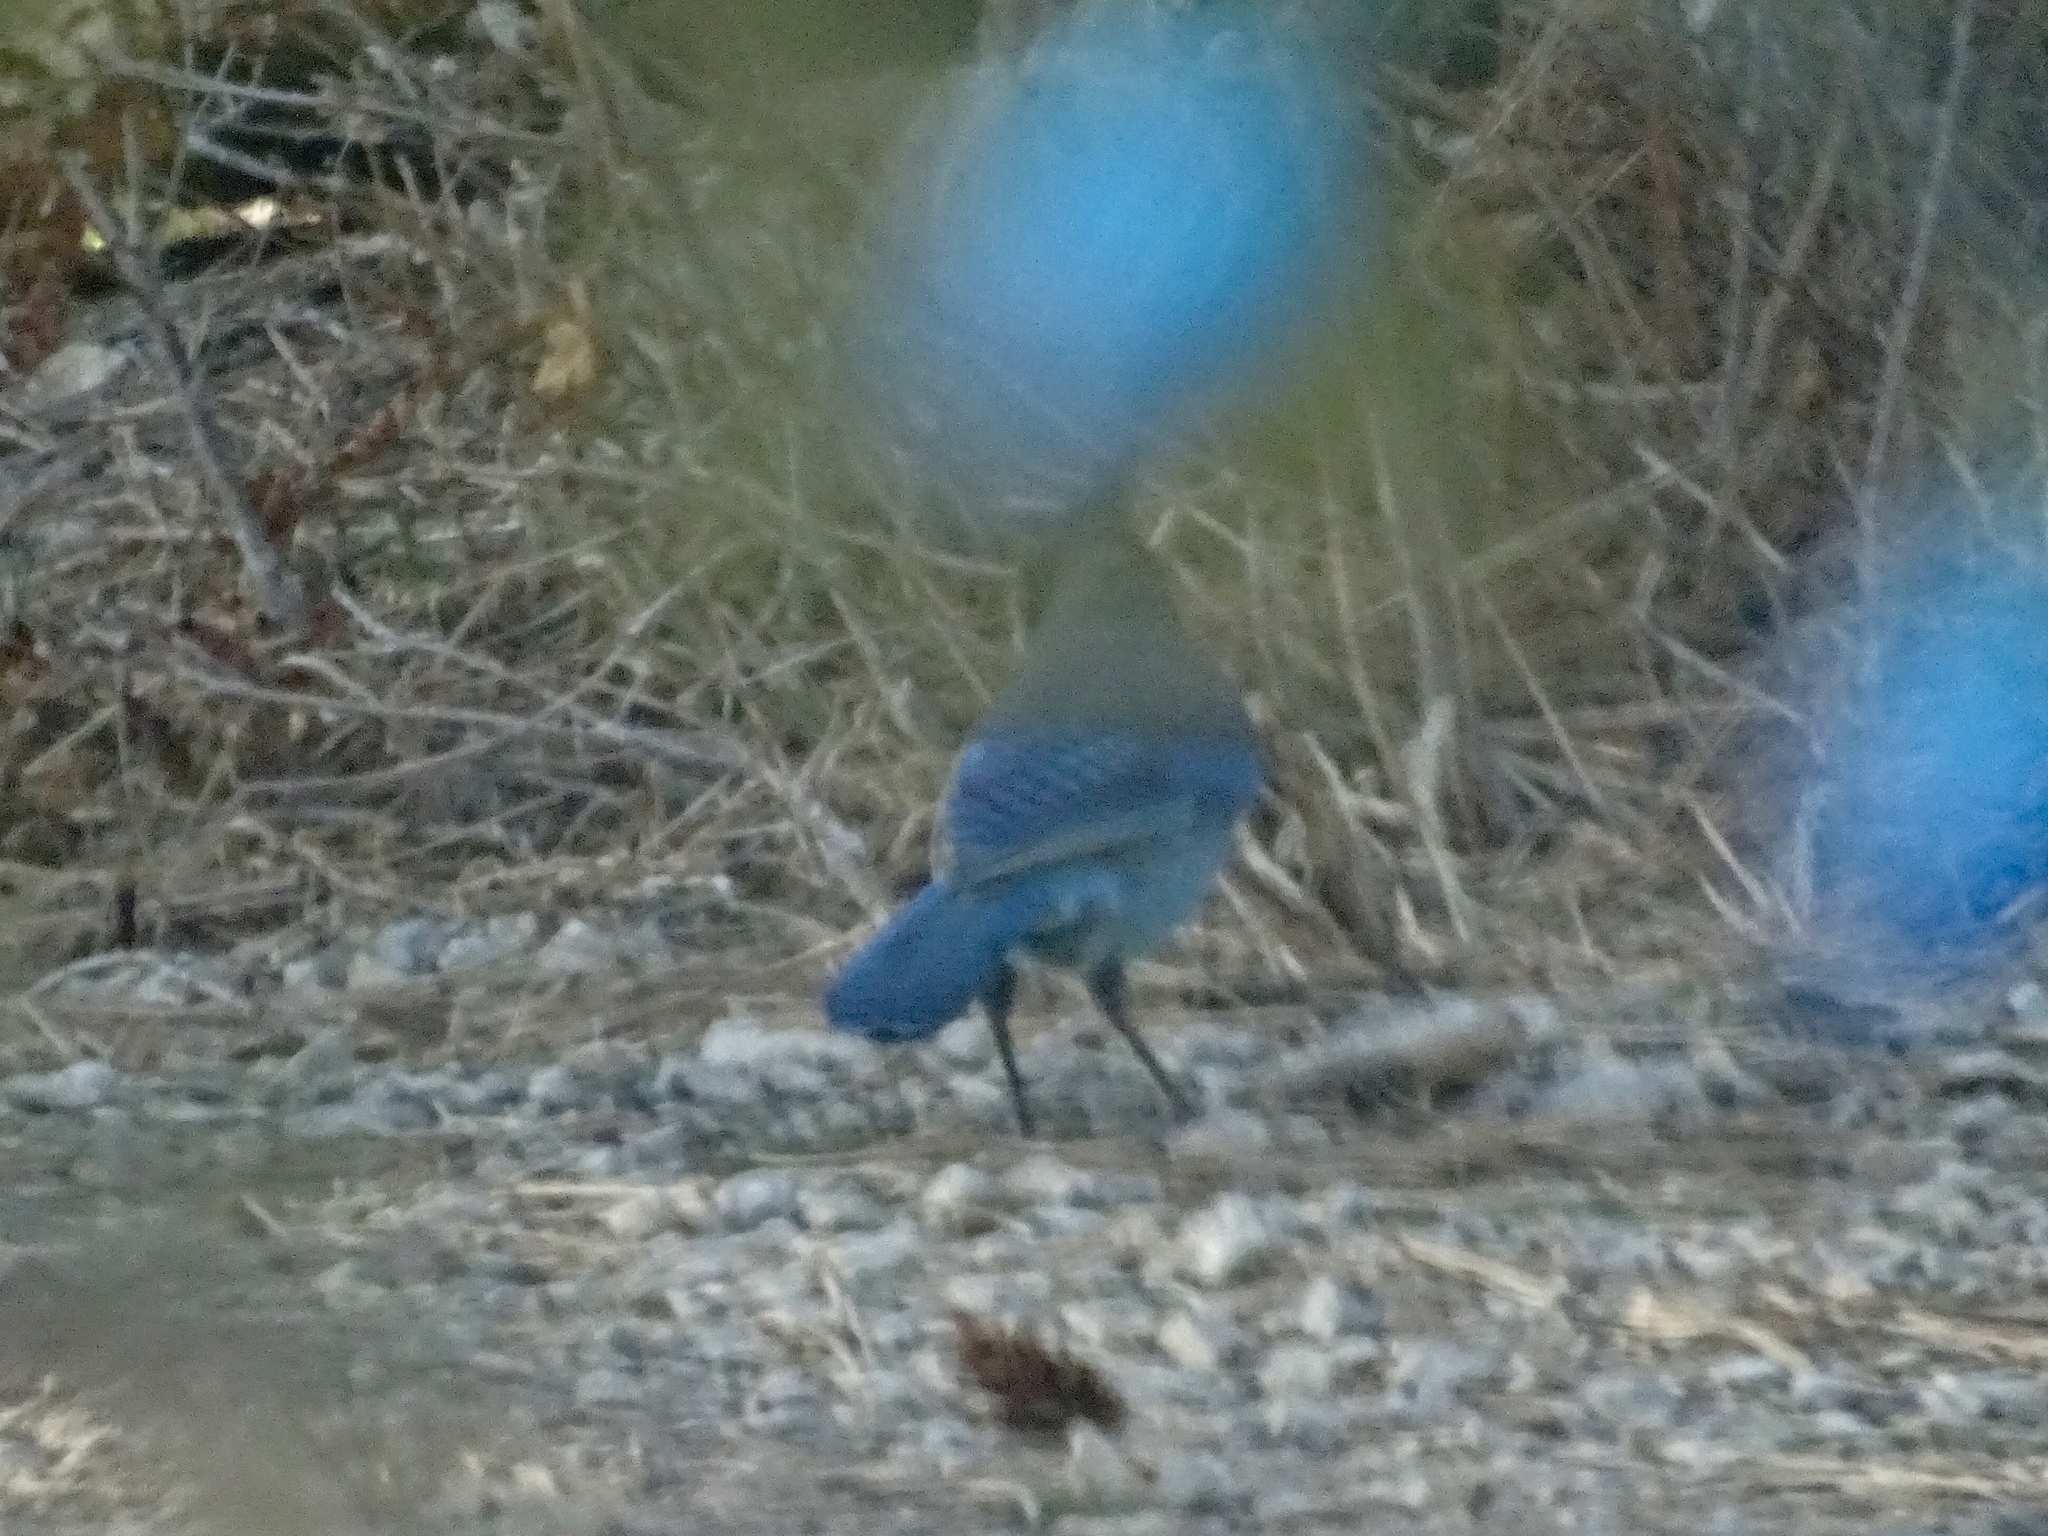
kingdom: Animalia
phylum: Chordata
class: Aves
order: Passeriformes
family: Corvidae
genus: Cyanocitta
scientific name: Cyanocitta stelleri
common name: Steller's jay
